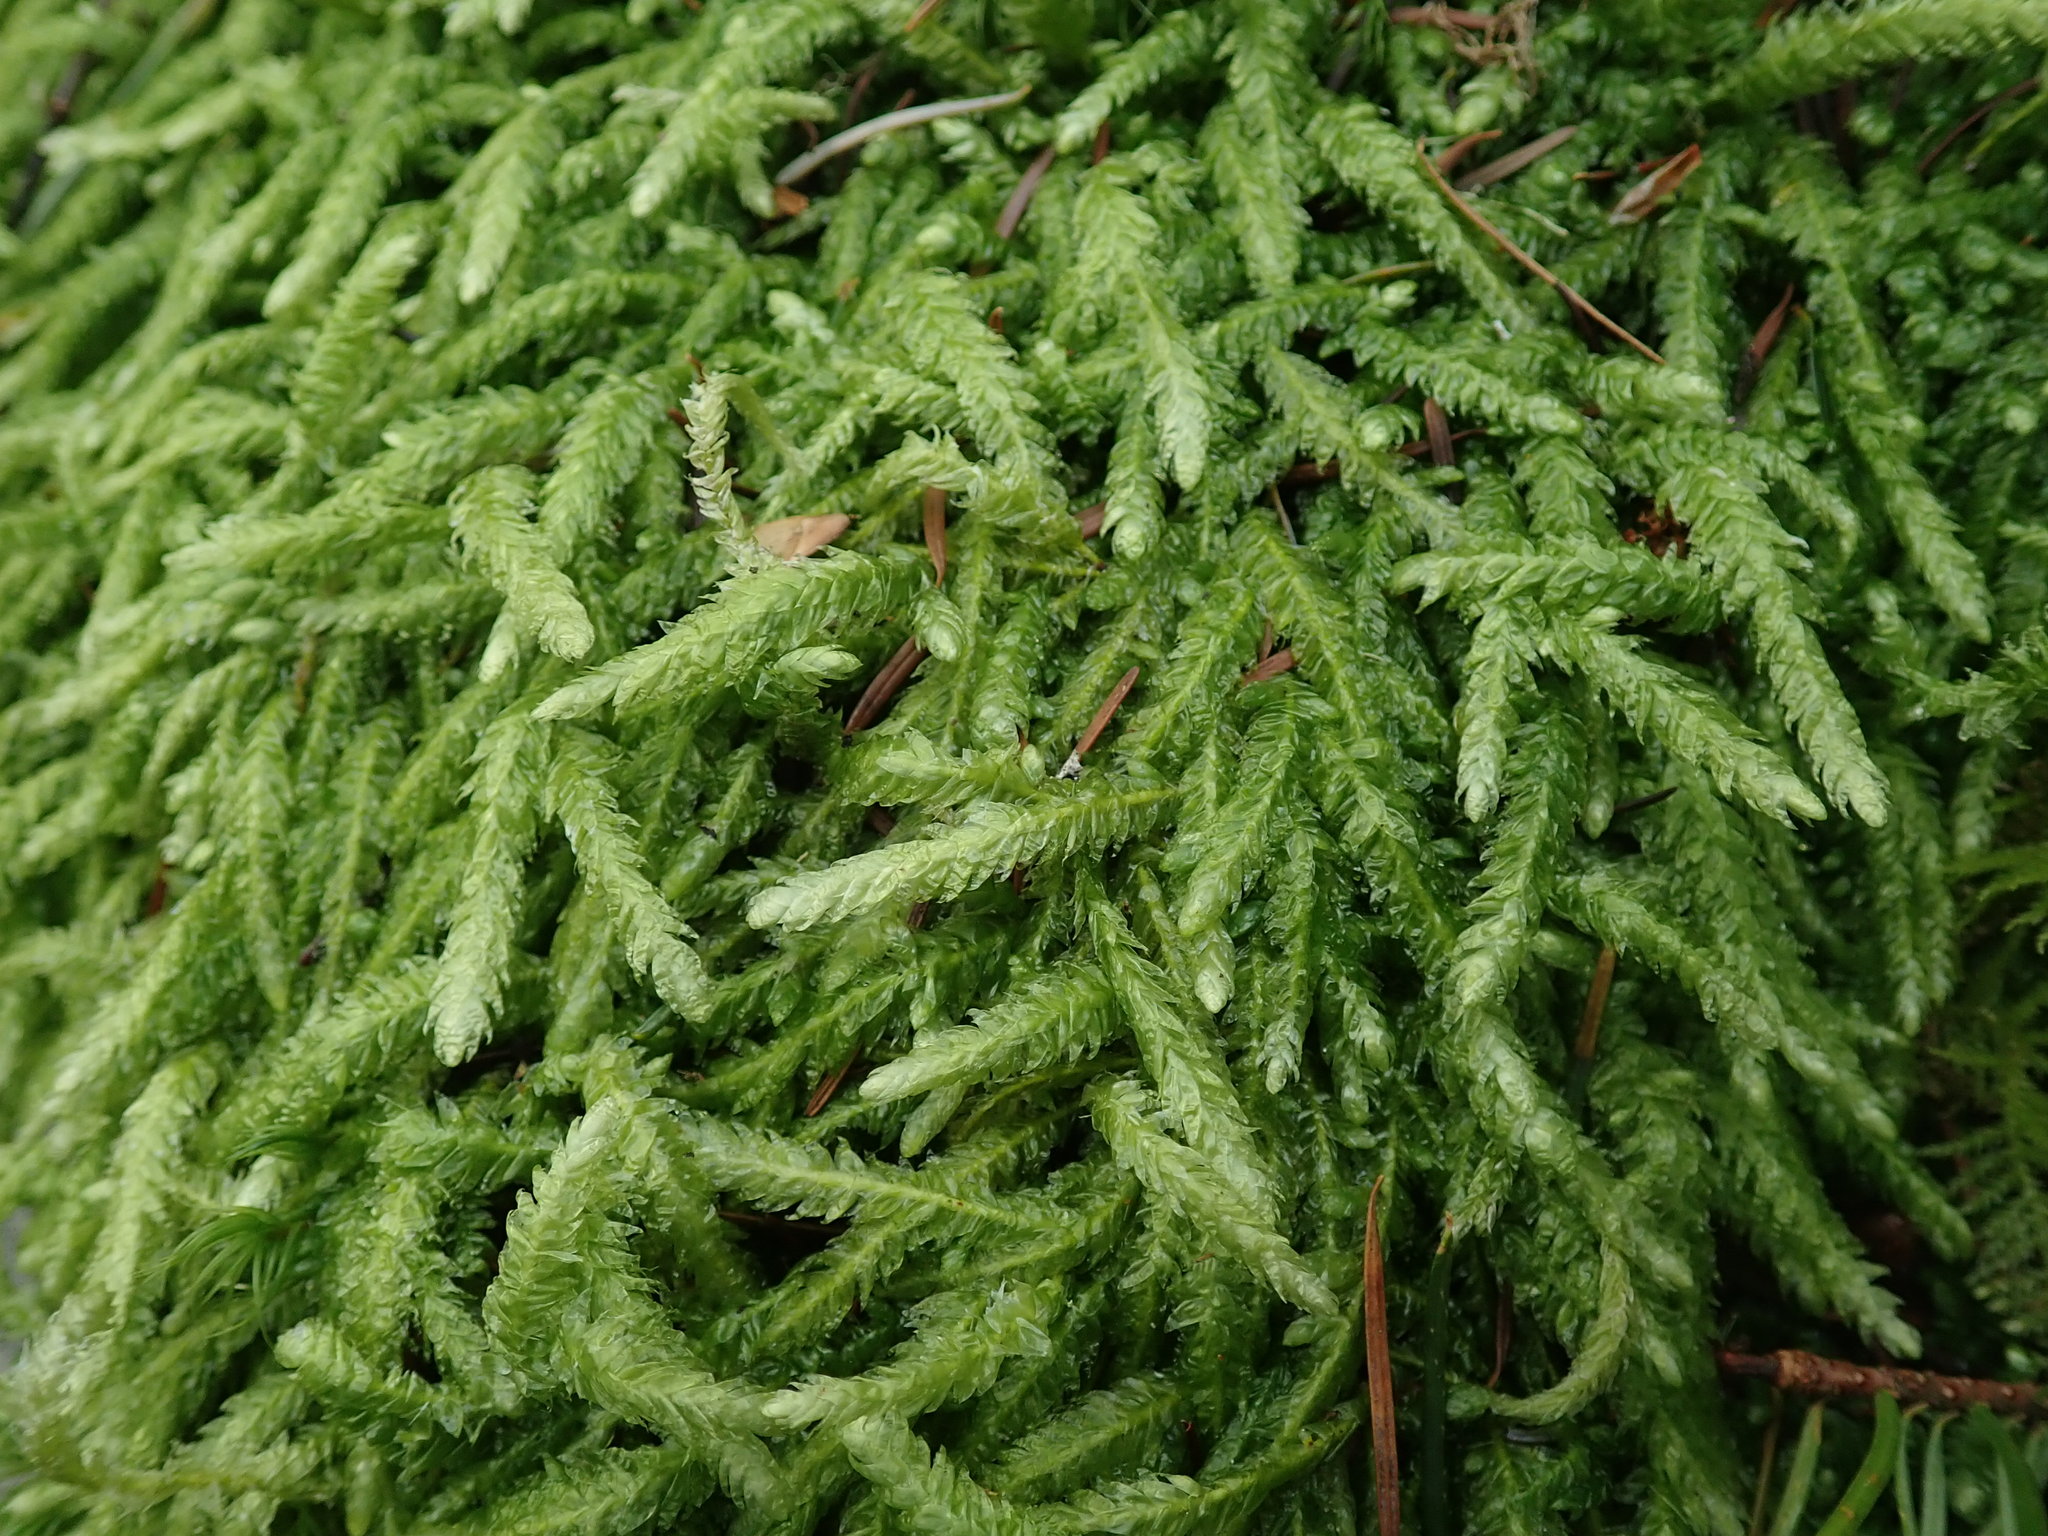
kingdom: Plantae
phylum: Bryophyta
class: Bryopsida
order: Hypnales
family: Plagiotheciaceae
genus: Plagiothecium
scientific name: Plagiothecium undulatum
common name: Waved silk-moss
